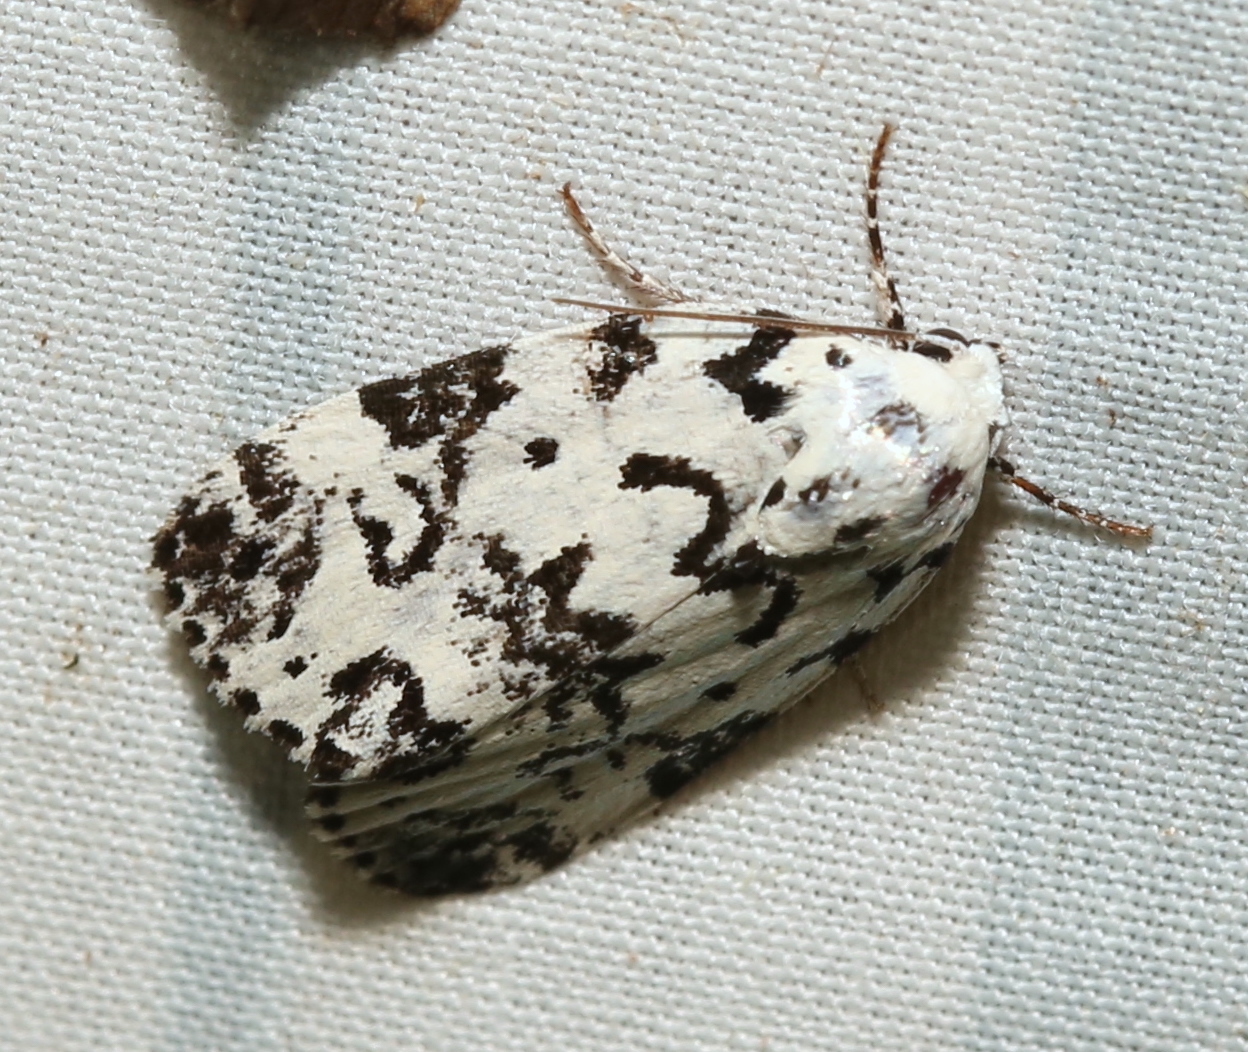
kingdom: Animalia
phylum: Arthropoda
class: Insecta
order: Lepidoptera
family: Noctuidae
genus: Polygrammate
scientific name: Polygrammate hebraeicum
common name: Hebrew moth
